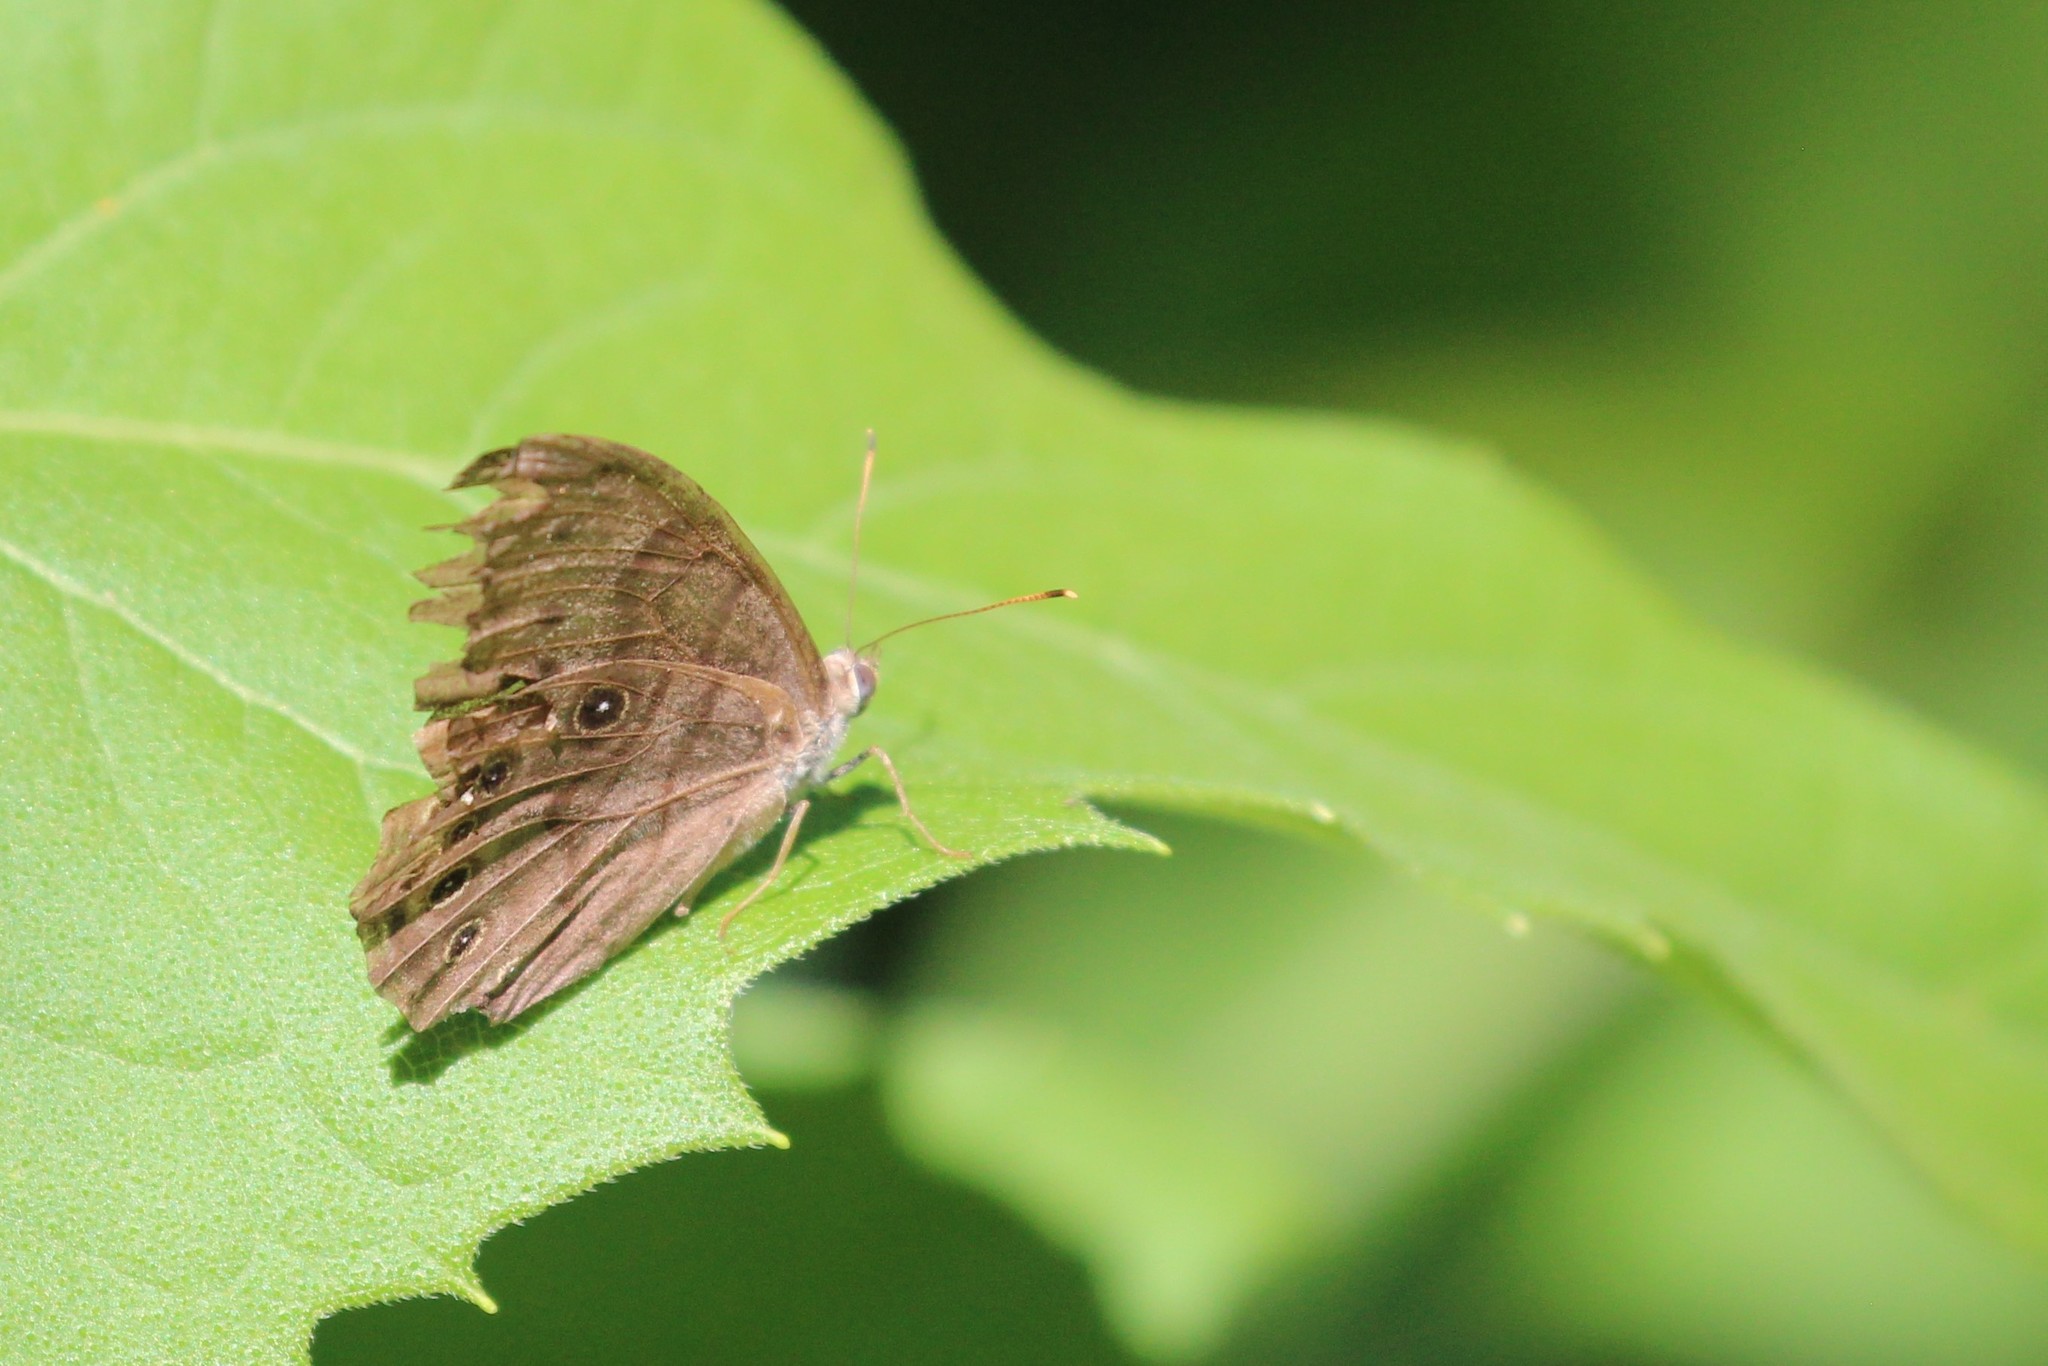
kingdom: Animalia
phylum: Arthropoda
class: Insecta
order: Lepidoptera
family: Nymphalidae
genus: Lethe
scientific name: Lethe anthedon
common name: Northern pearly-eye
